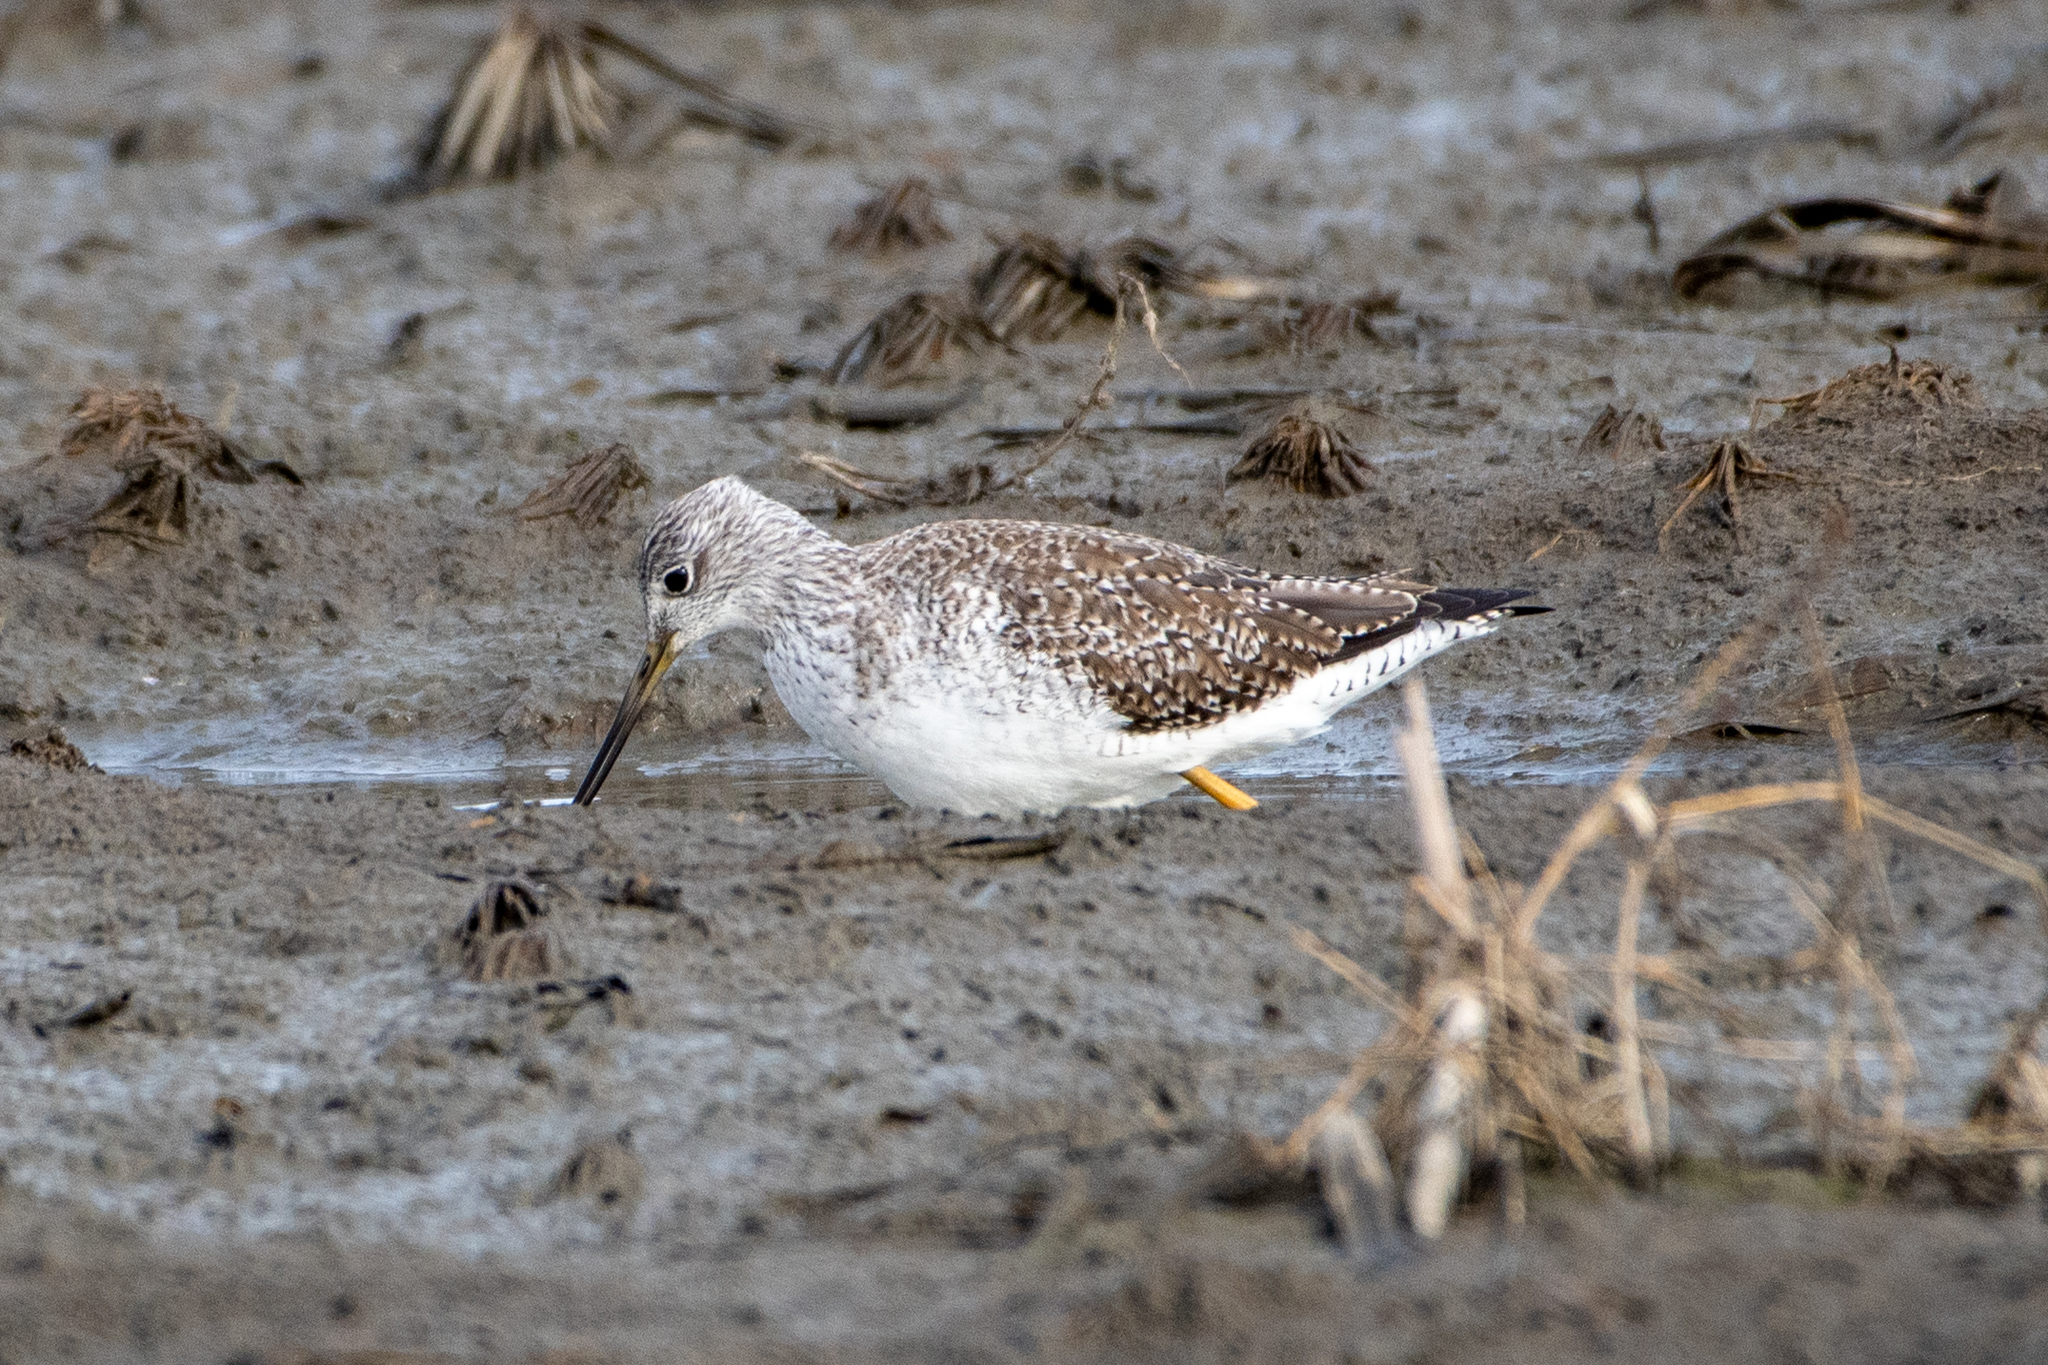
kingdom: Animalia
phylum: Chordata
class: Aves
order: Charadriiformes
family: Scolopacidae
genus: Tringa
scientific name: Tringa melanoleuca
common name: Greater yellowlegs
